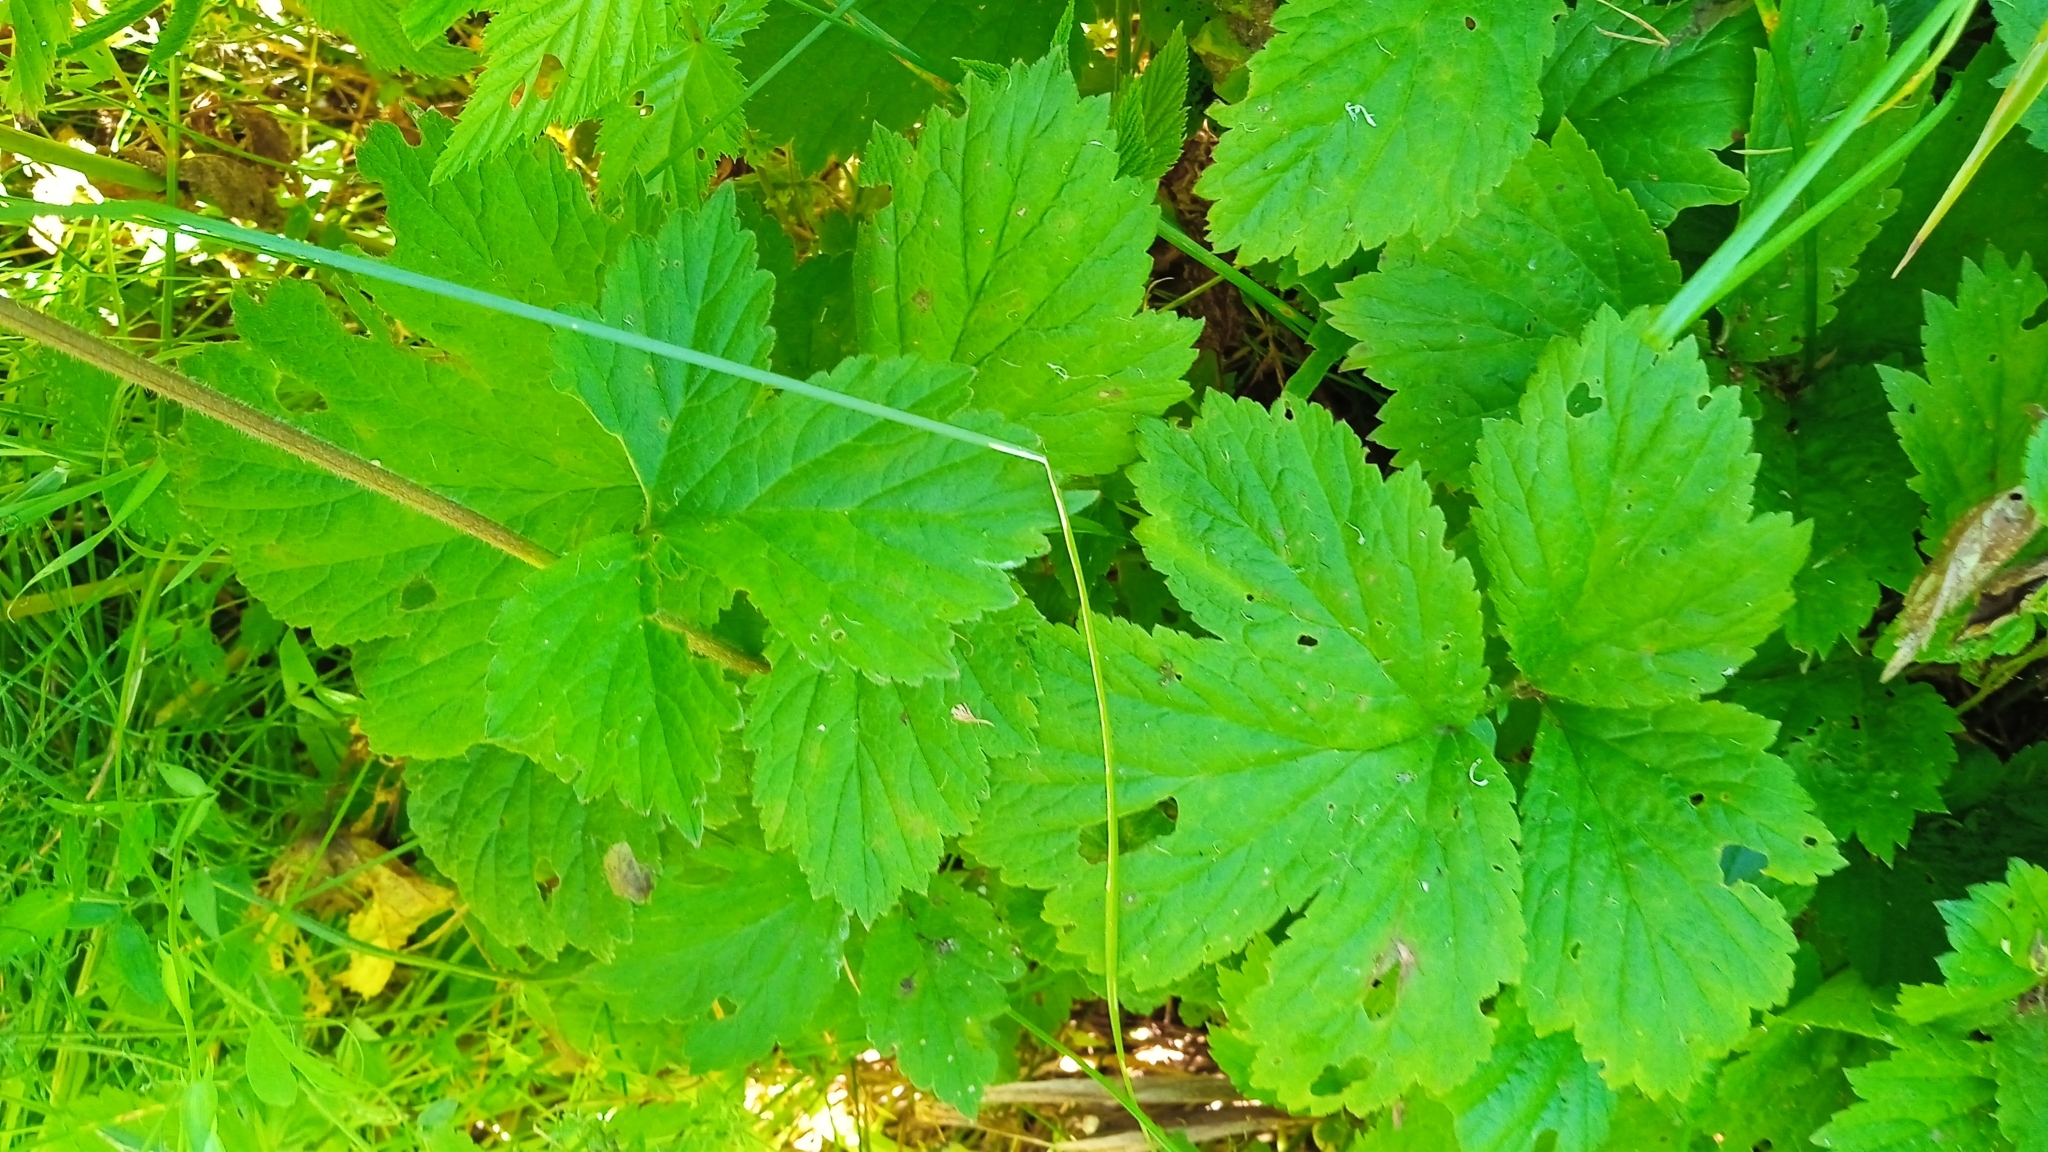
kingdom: Plantae
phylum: Tracheophyta
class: Magnoliopsida
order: Rosales
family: Rosaceae
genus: Geum
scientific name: Geum rivale
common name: Water avens
